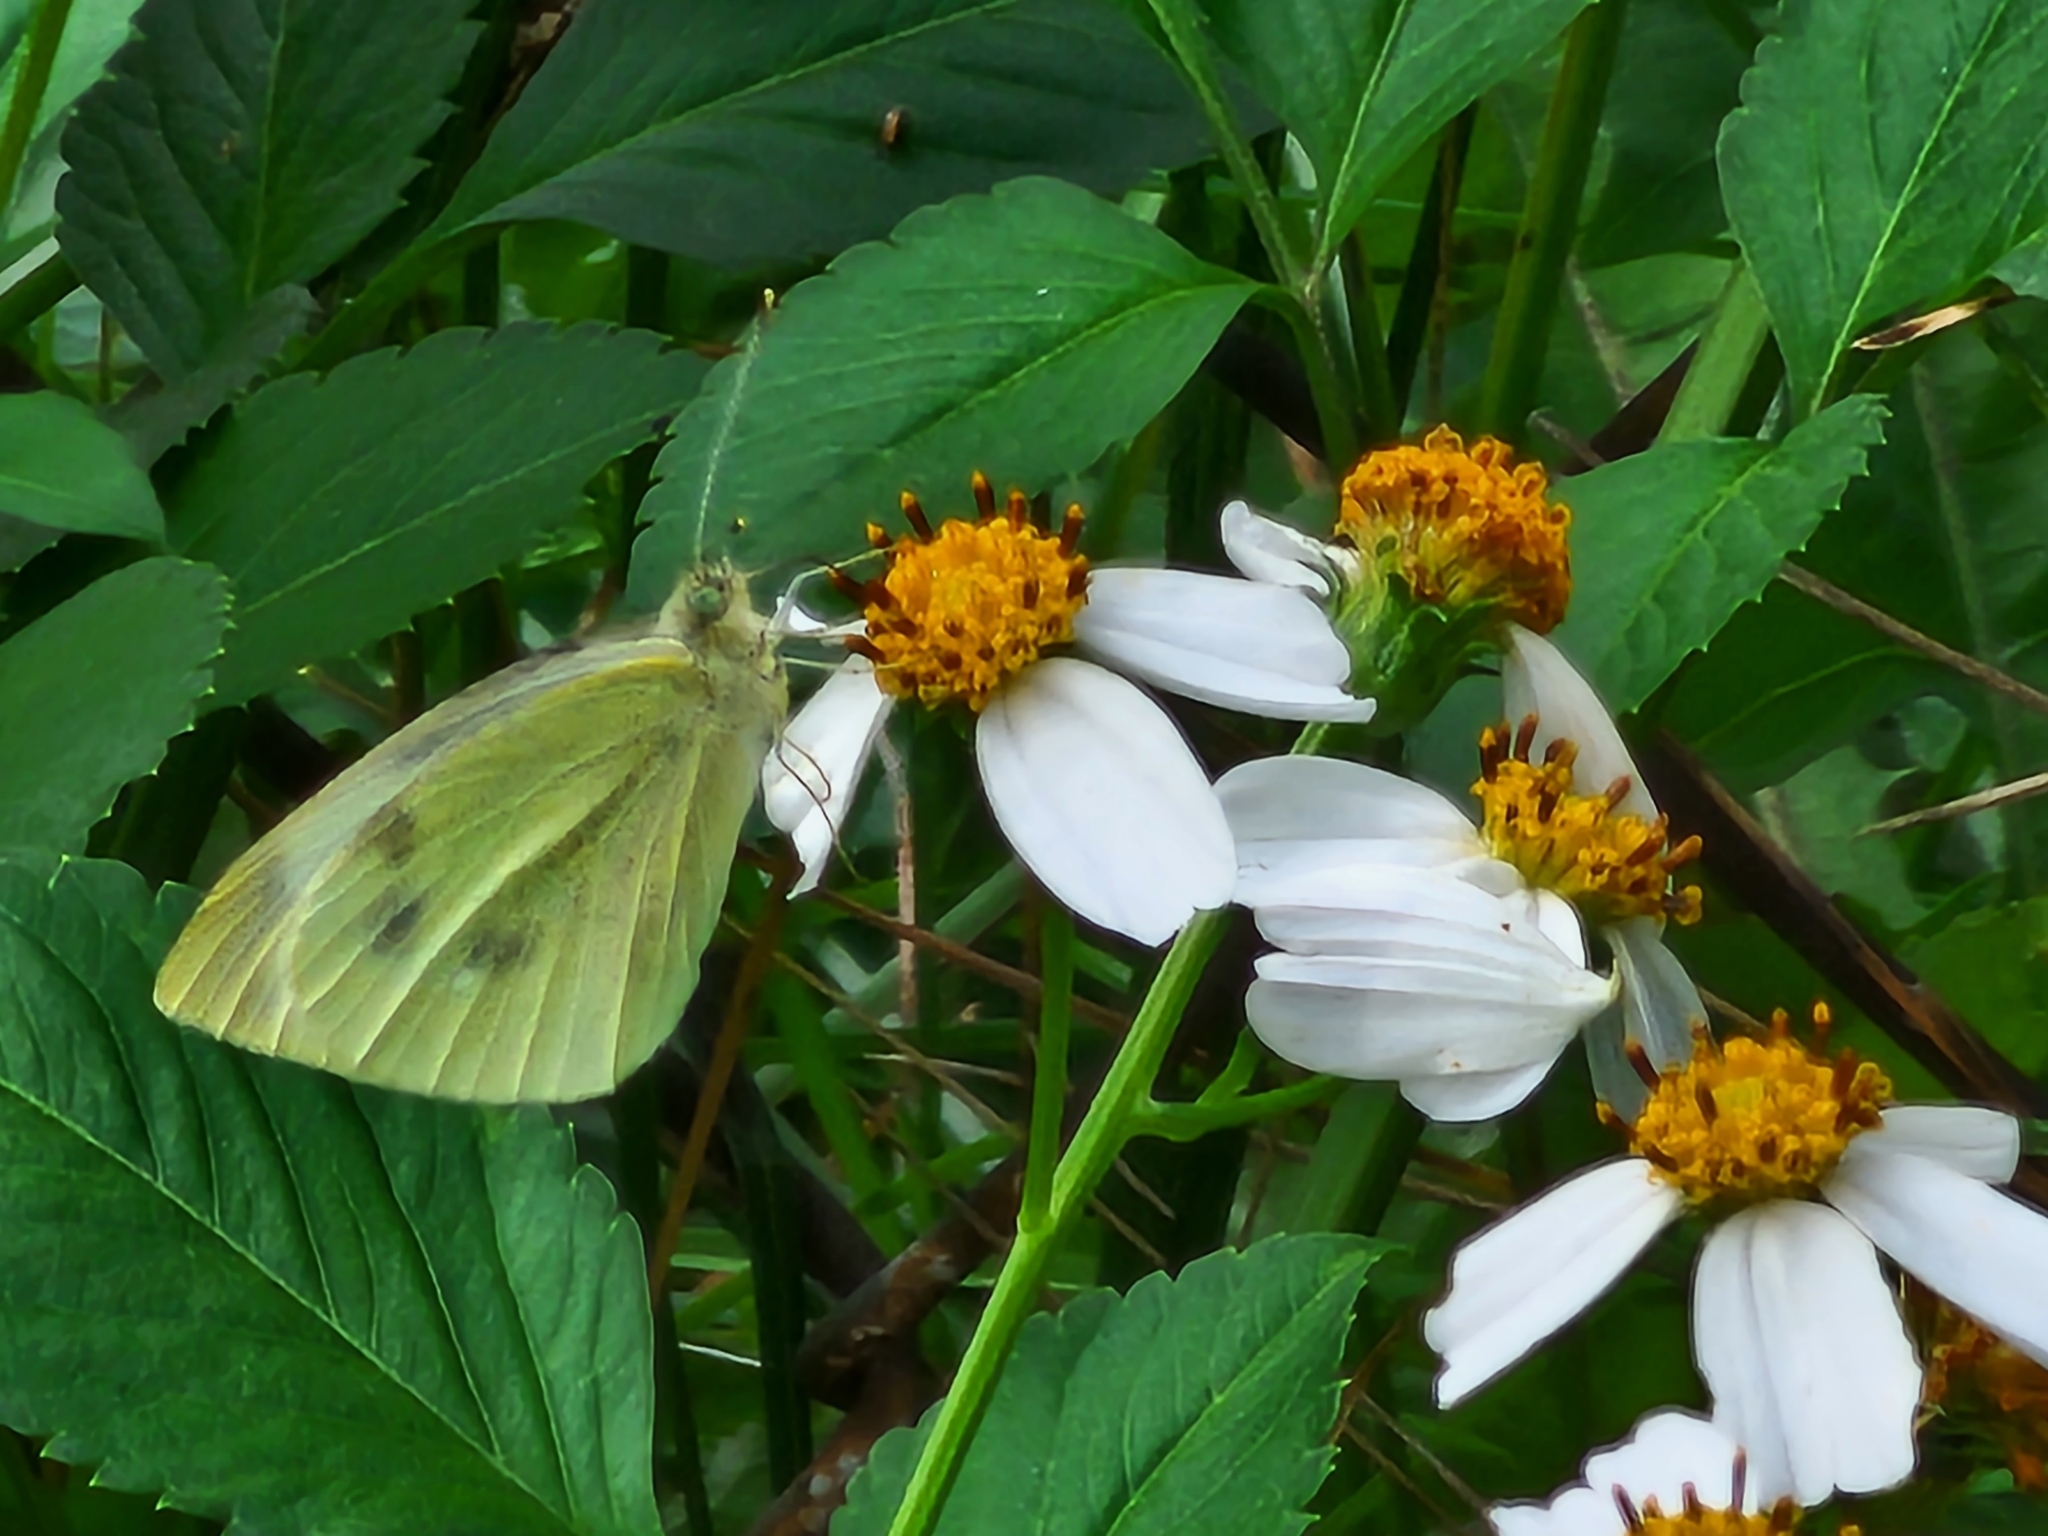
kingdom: Animalia
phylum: Arthropoda
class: Insecta
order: Lepidoptera
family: Pieridae
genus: Pieris
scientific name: Pieris rapae
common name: Small white
